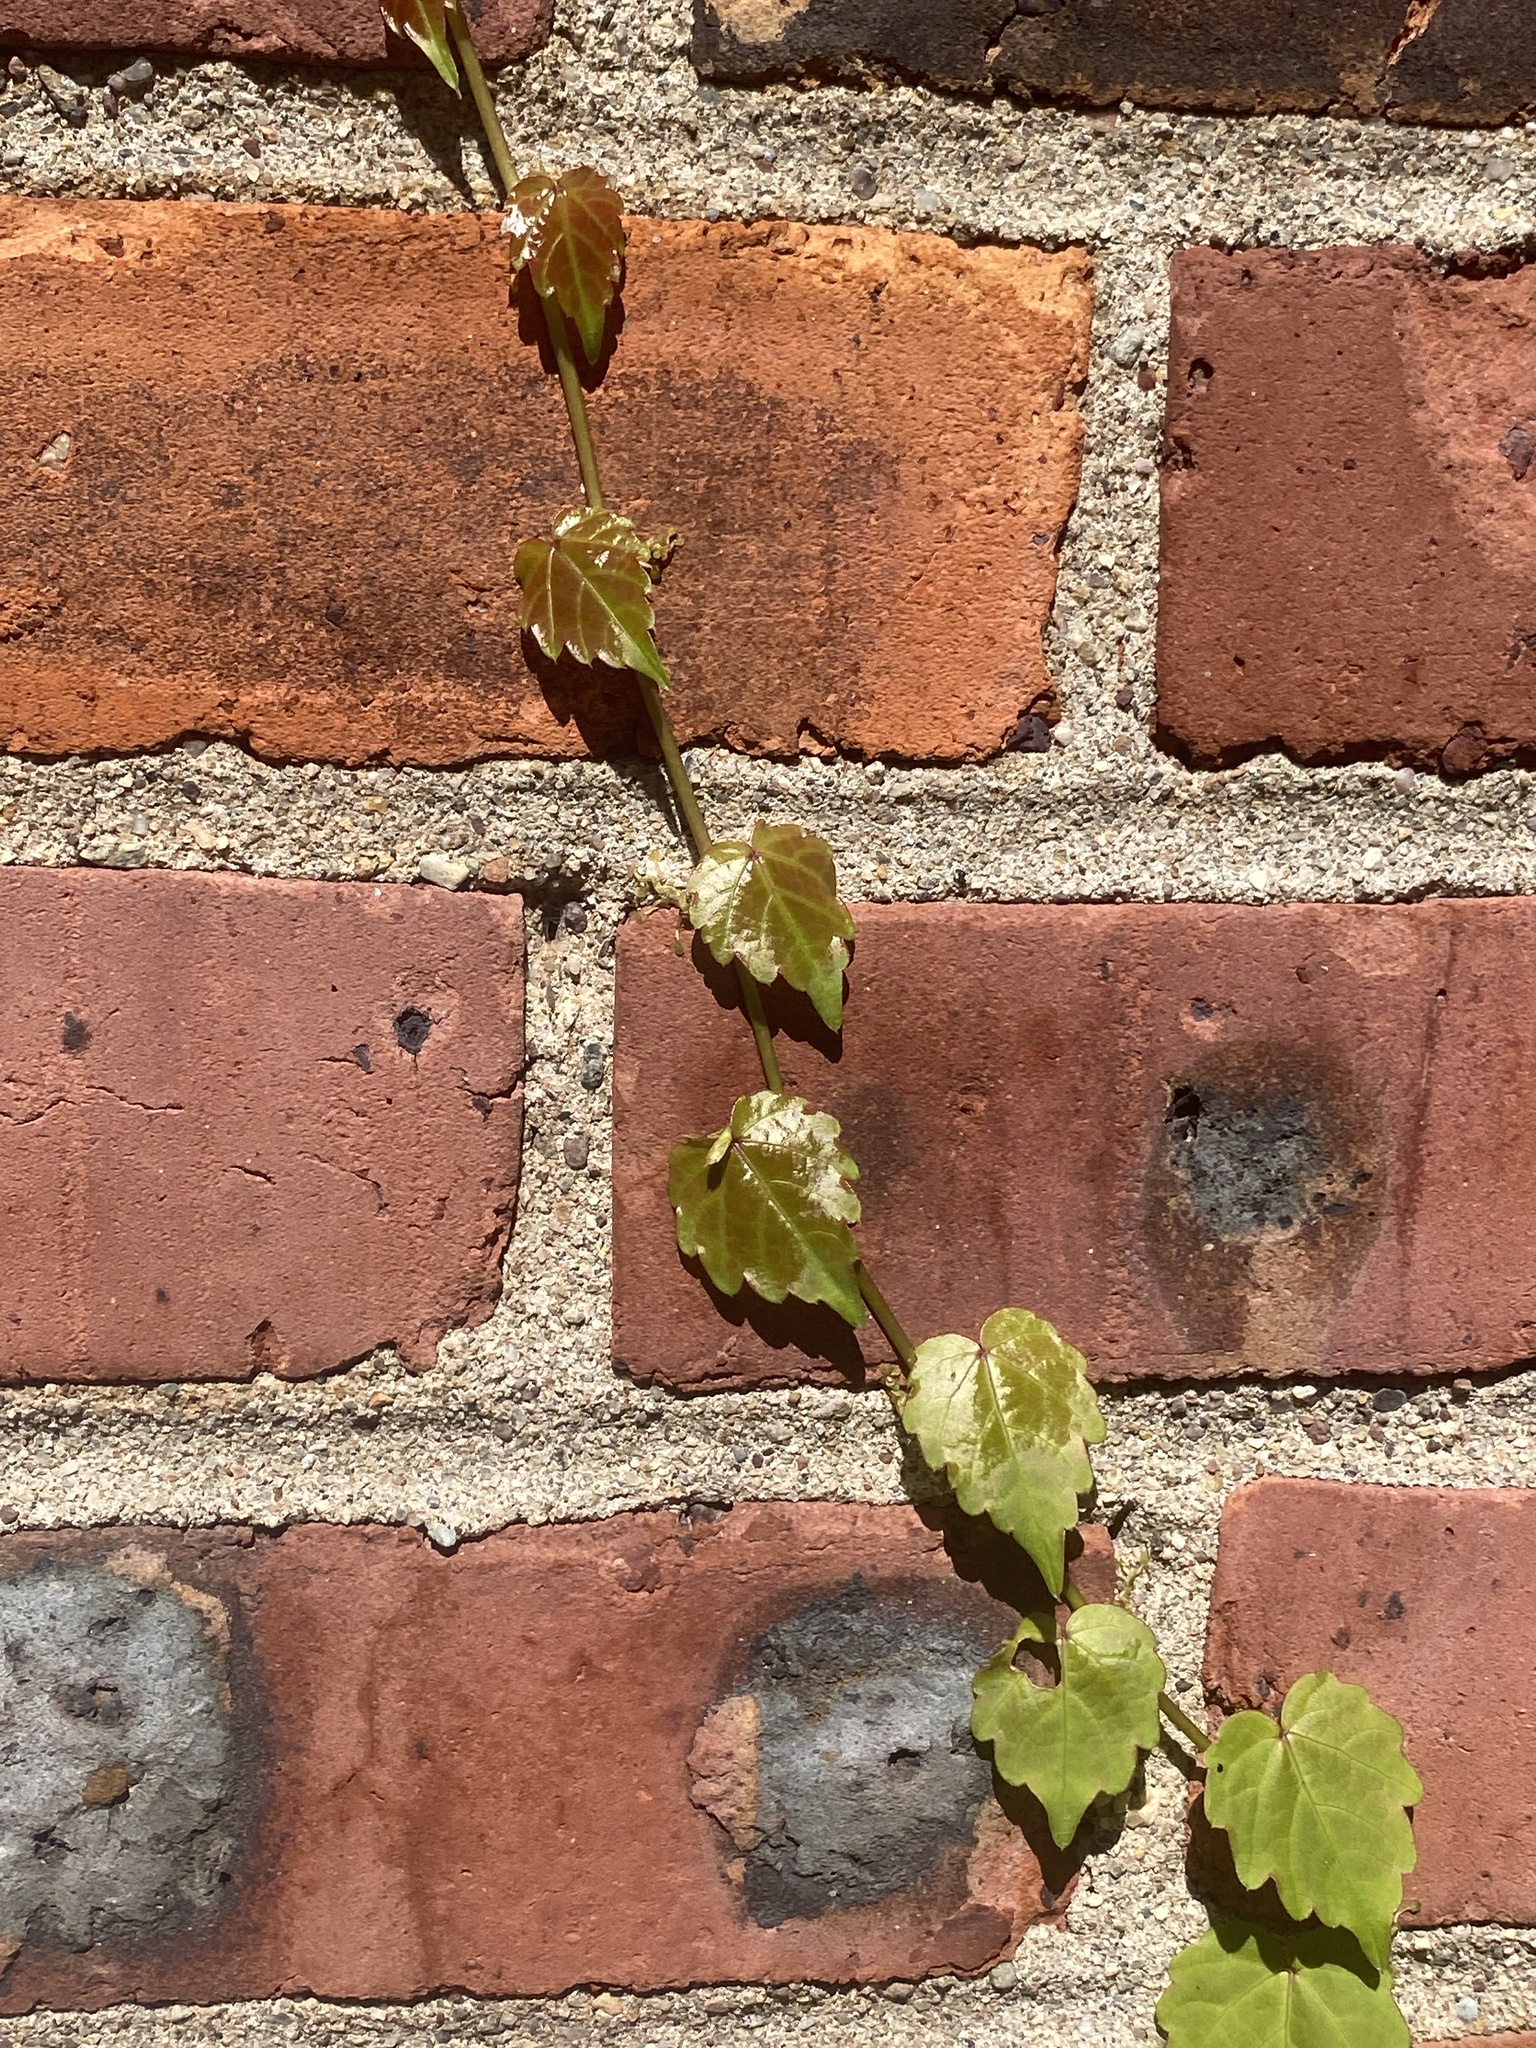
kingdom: Plantae
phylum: Tracheophyta
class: Magnoliopsida
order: Vitales
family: Vitaceae
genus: Parthenocissus
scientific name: Parthenocissus tricuspidata
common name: Boston ivy
